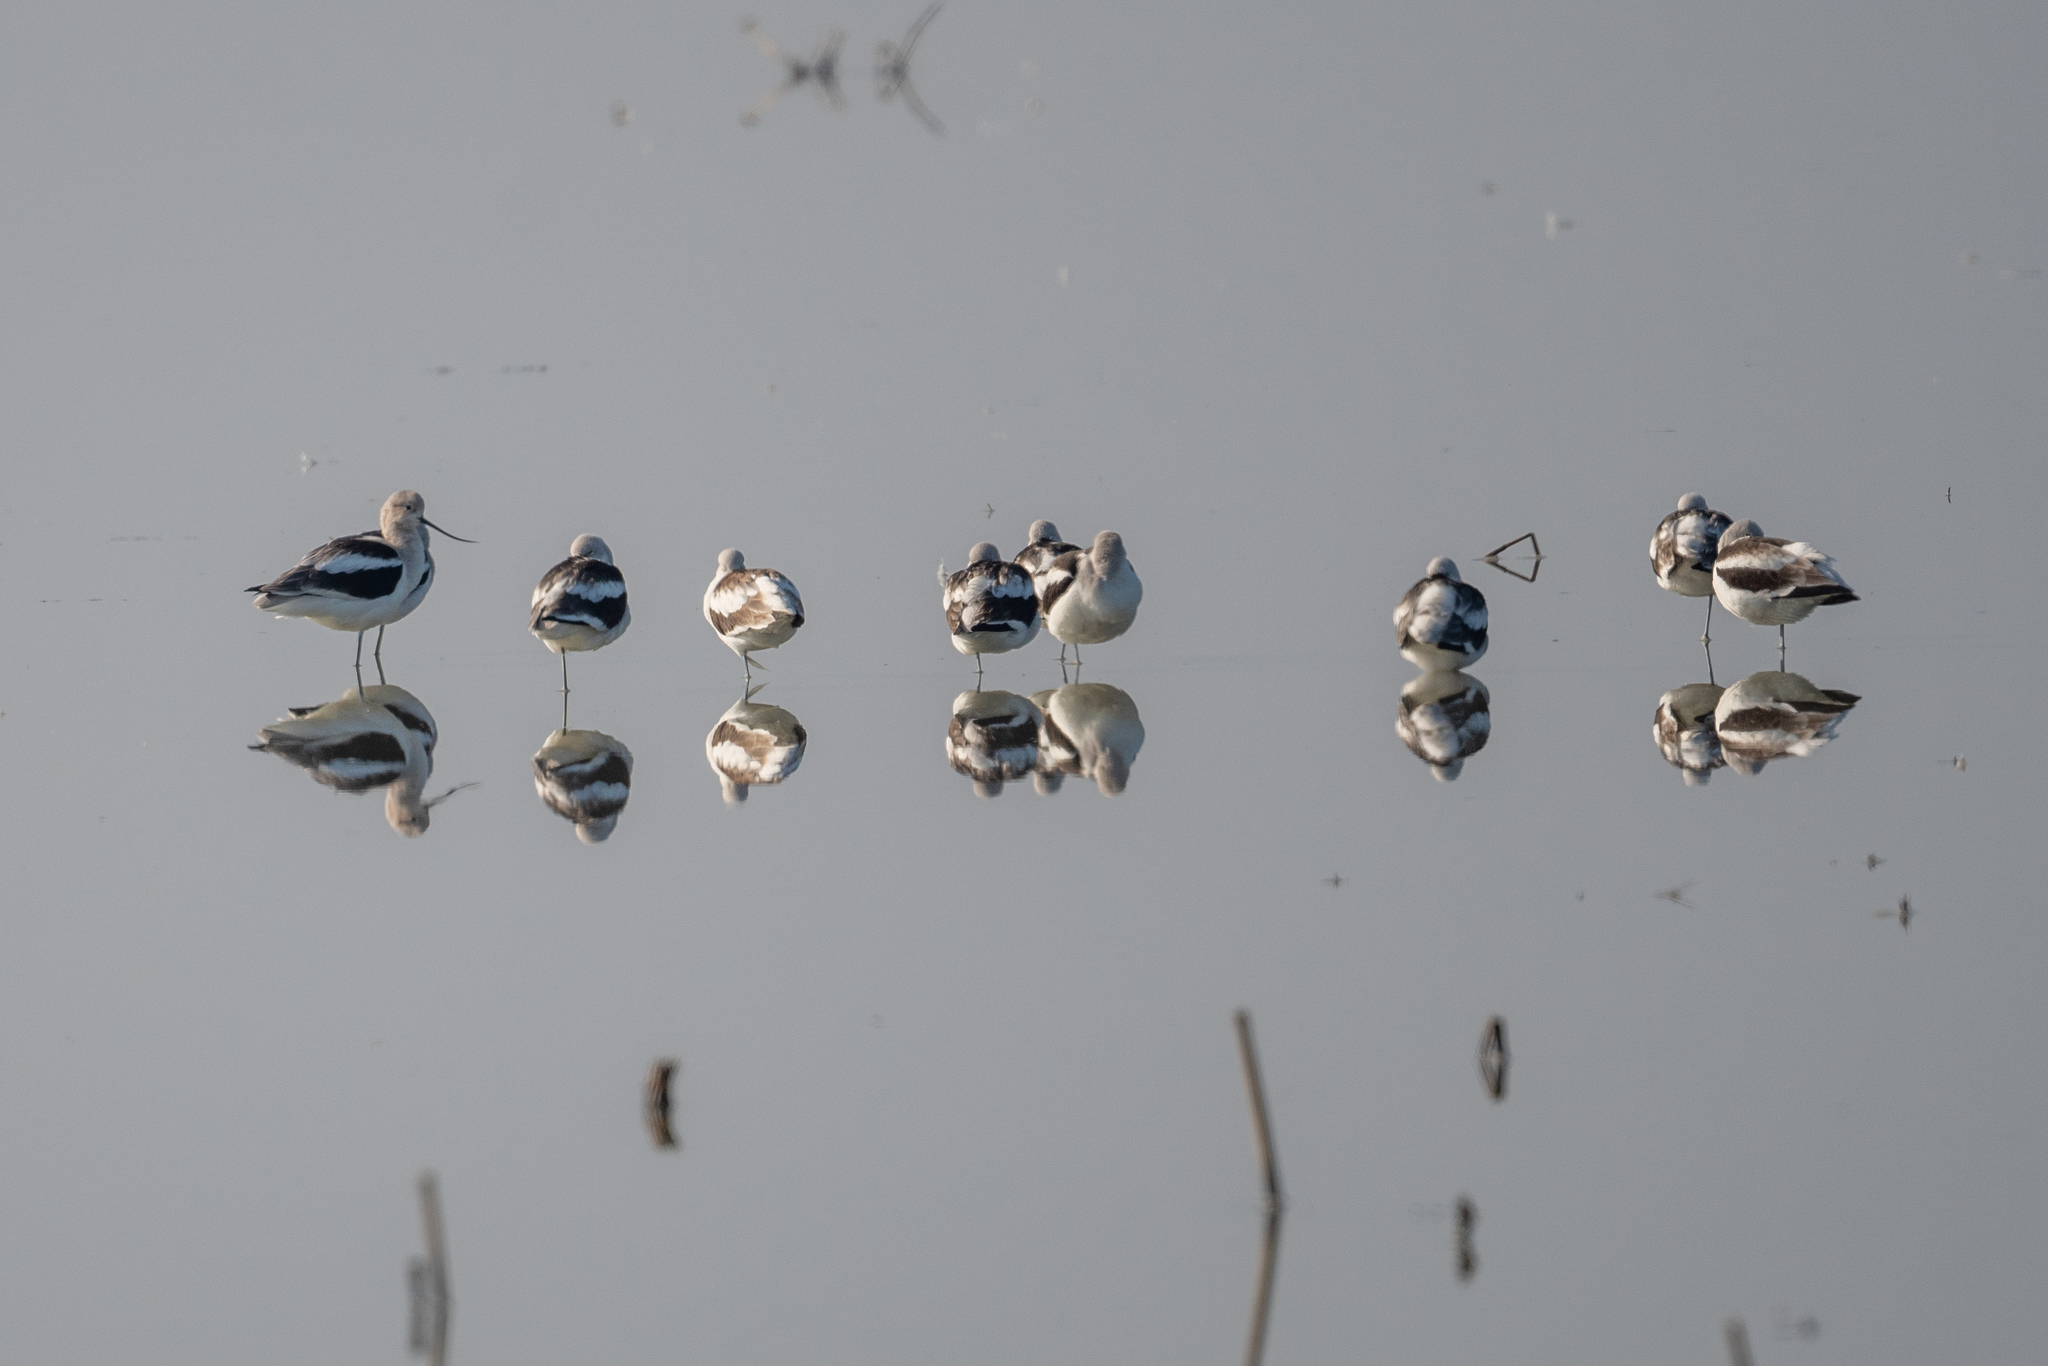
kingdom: Animalia
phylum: Chordata
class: Aves
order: Charadriiformes
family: Recurvirostridae
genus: Recurvirostra
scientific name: Recurvirostra americana
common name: American avocet
